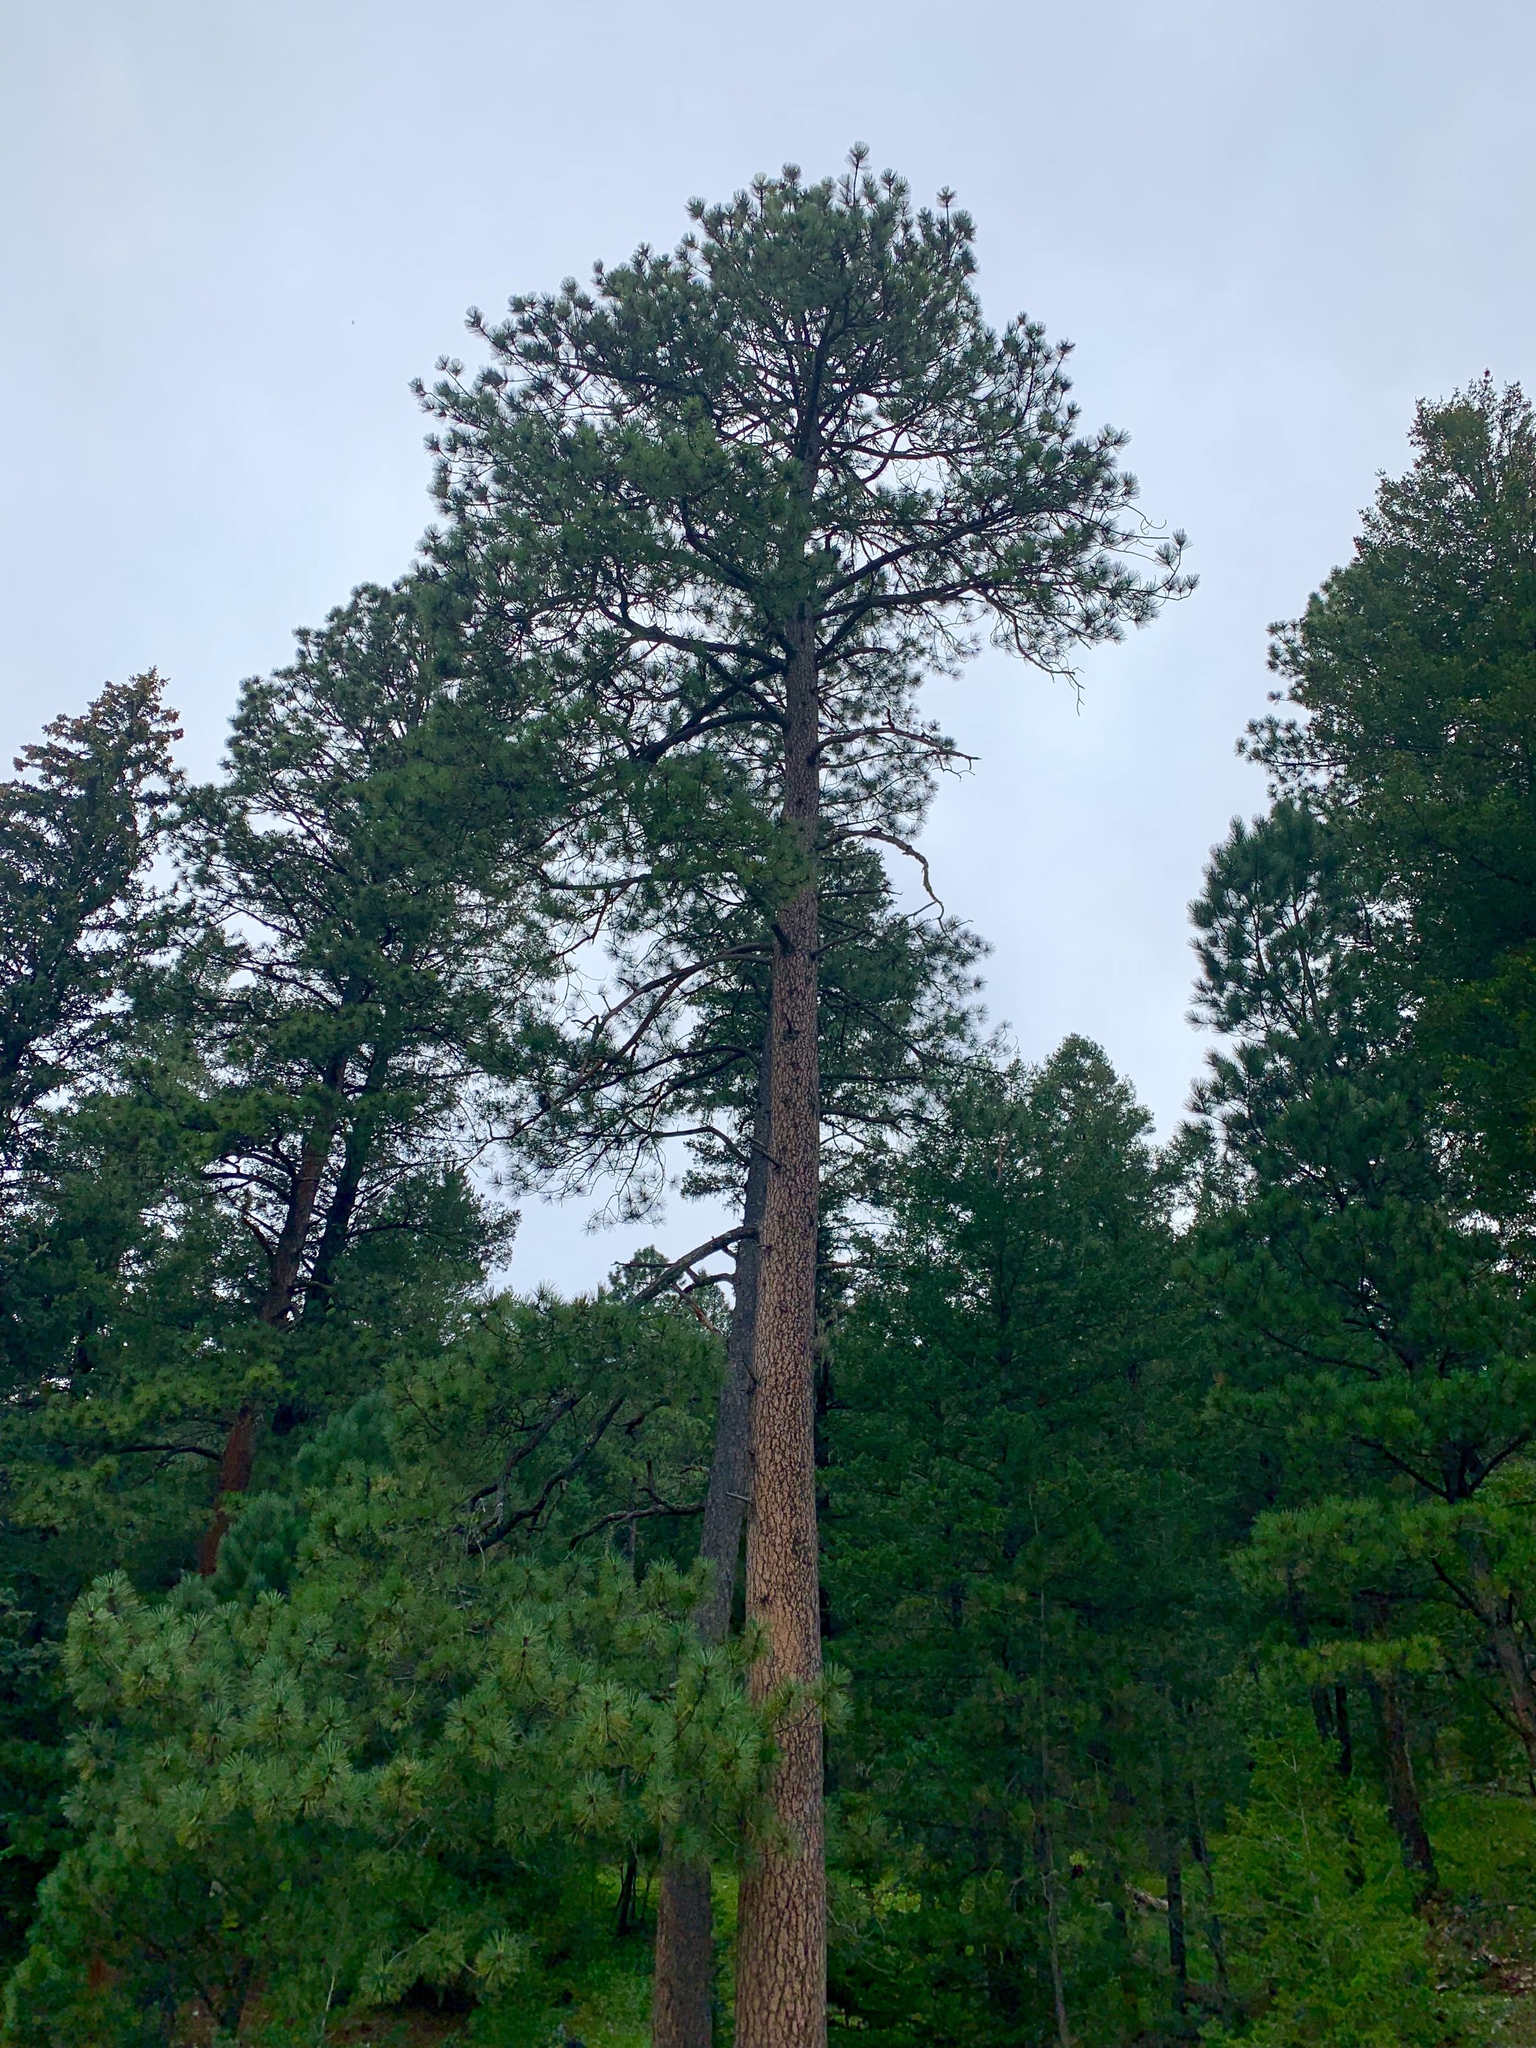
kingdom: Plantae
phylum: Tracheophyta
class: Pinopsida
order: Pinales
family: Pinaceae
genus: Pinus
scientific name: Pinus ponderosa
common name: Western yellow-pine
